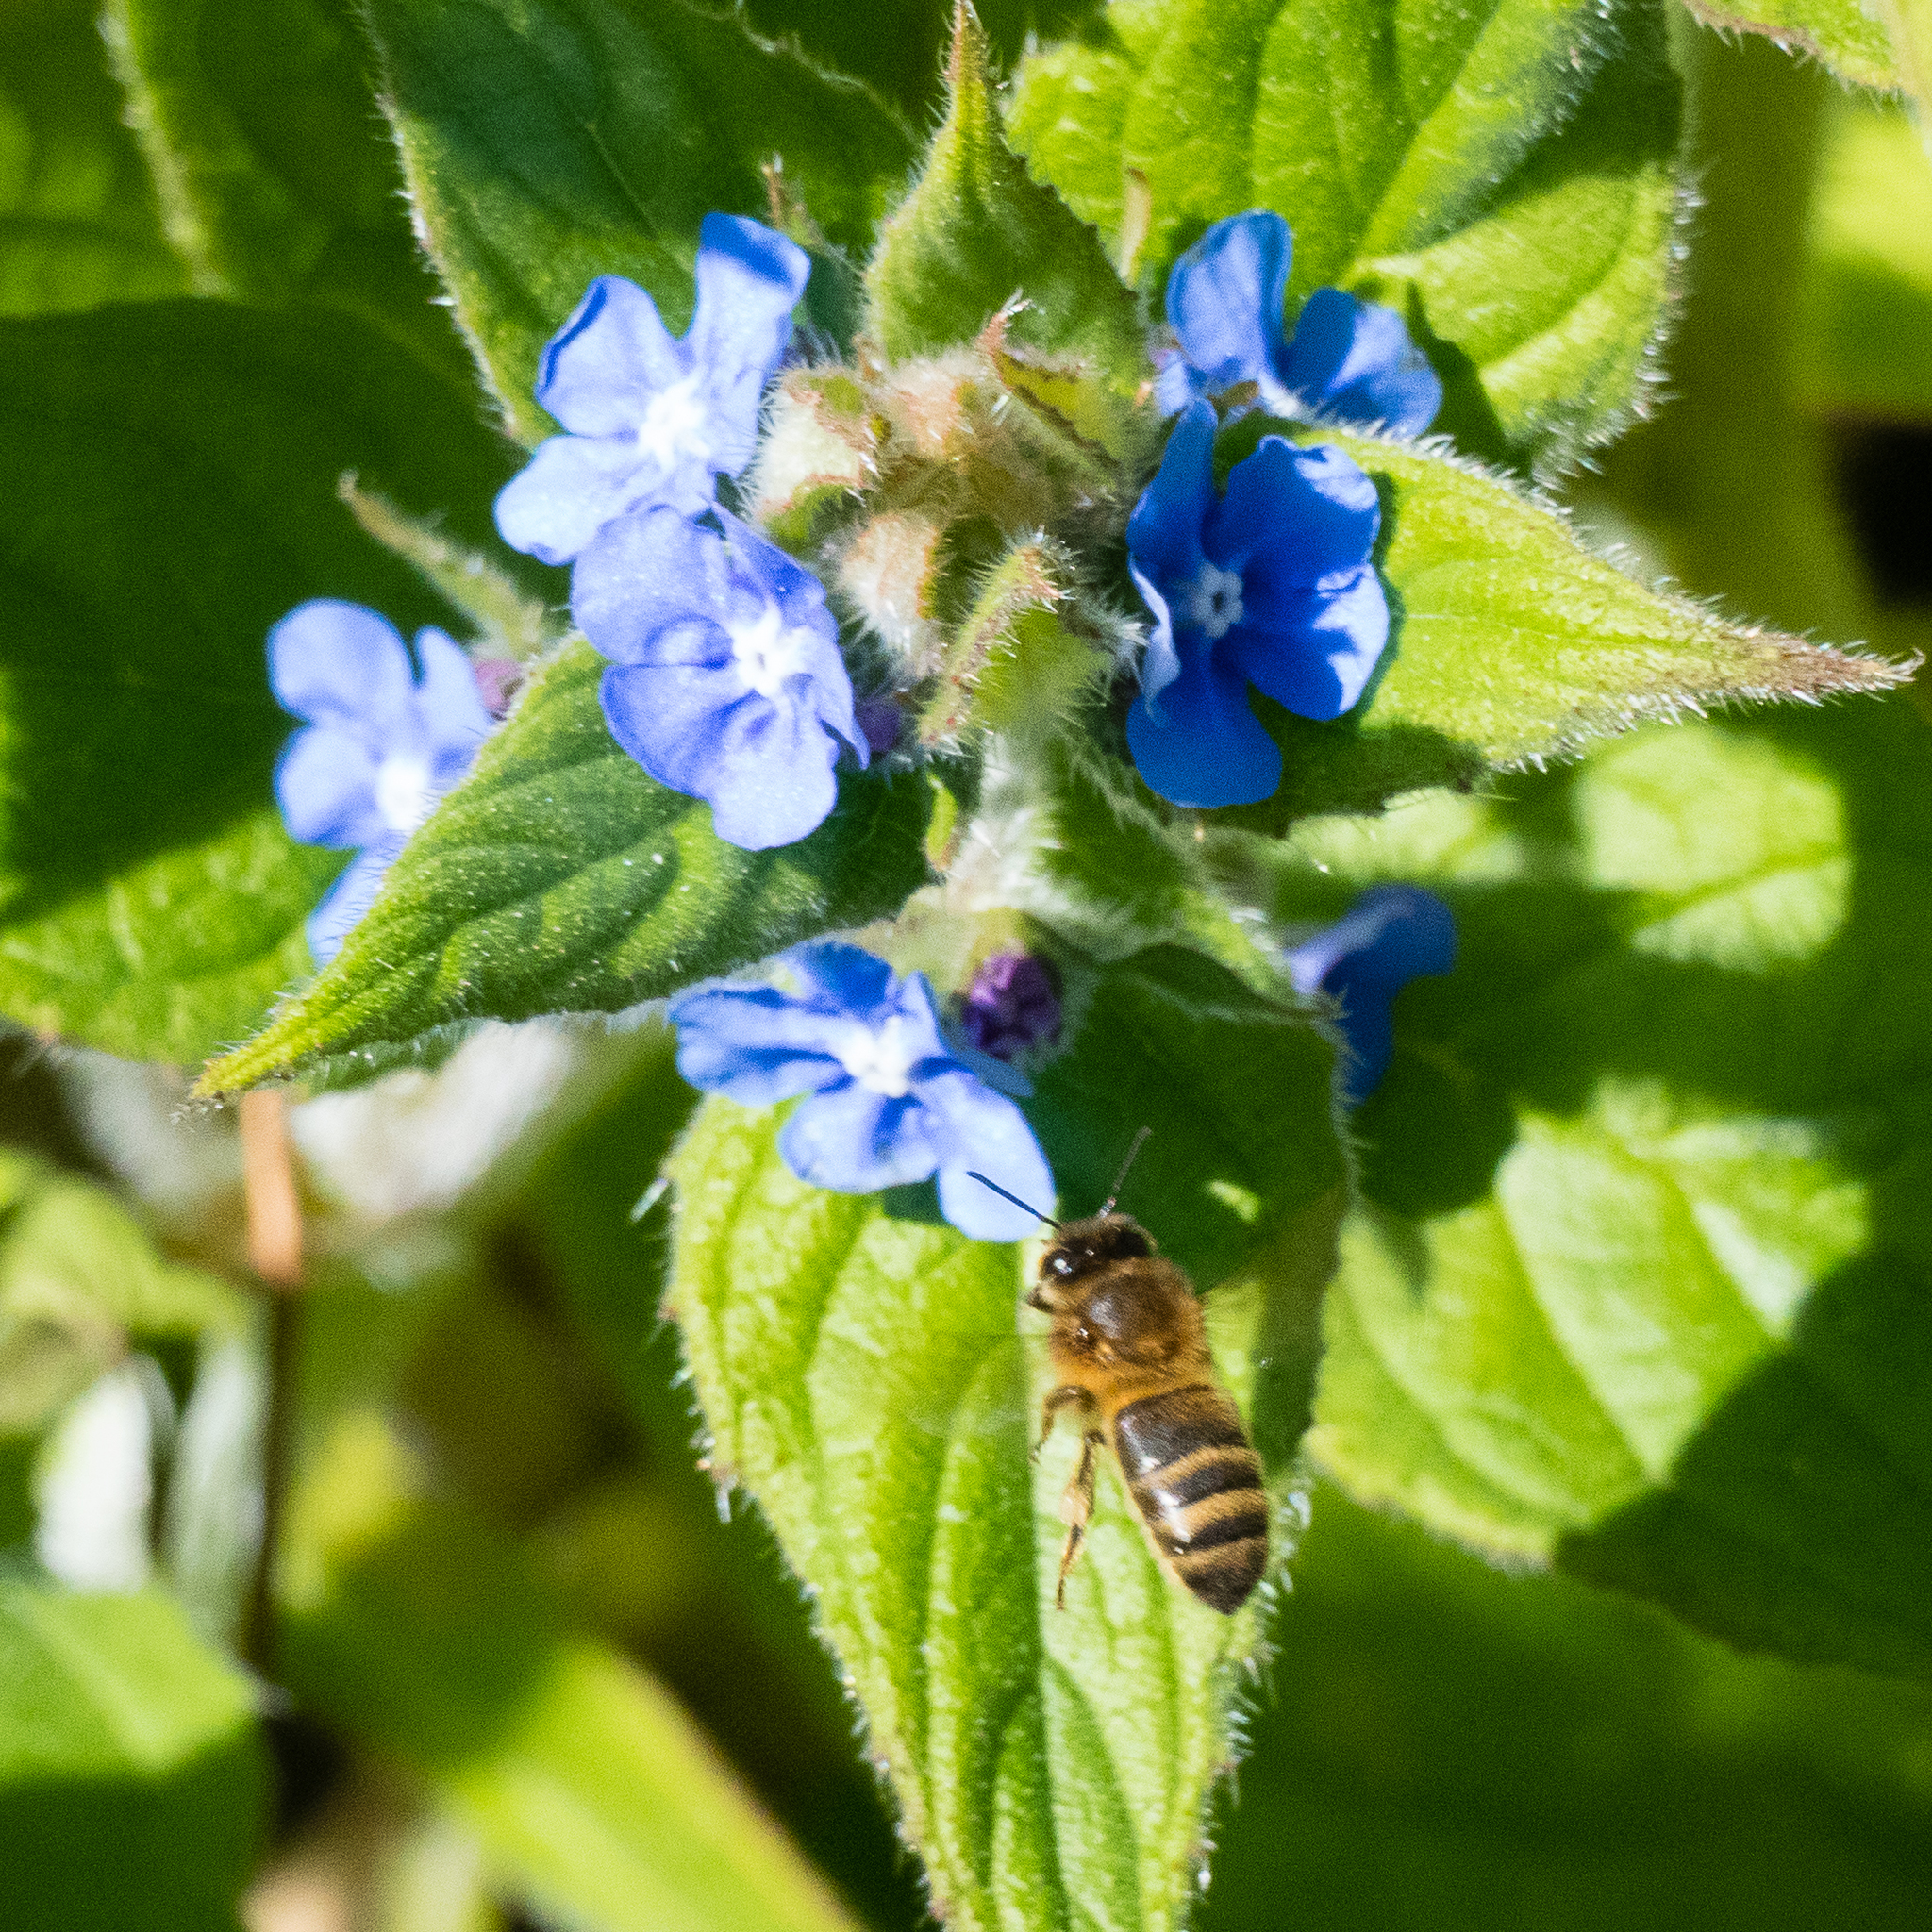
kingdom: Animalia
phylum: Arthropoda
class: Insecta
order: Hymenoptera
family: Apidae
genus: Apis
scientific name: Apis mellifera
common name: Honey bee
